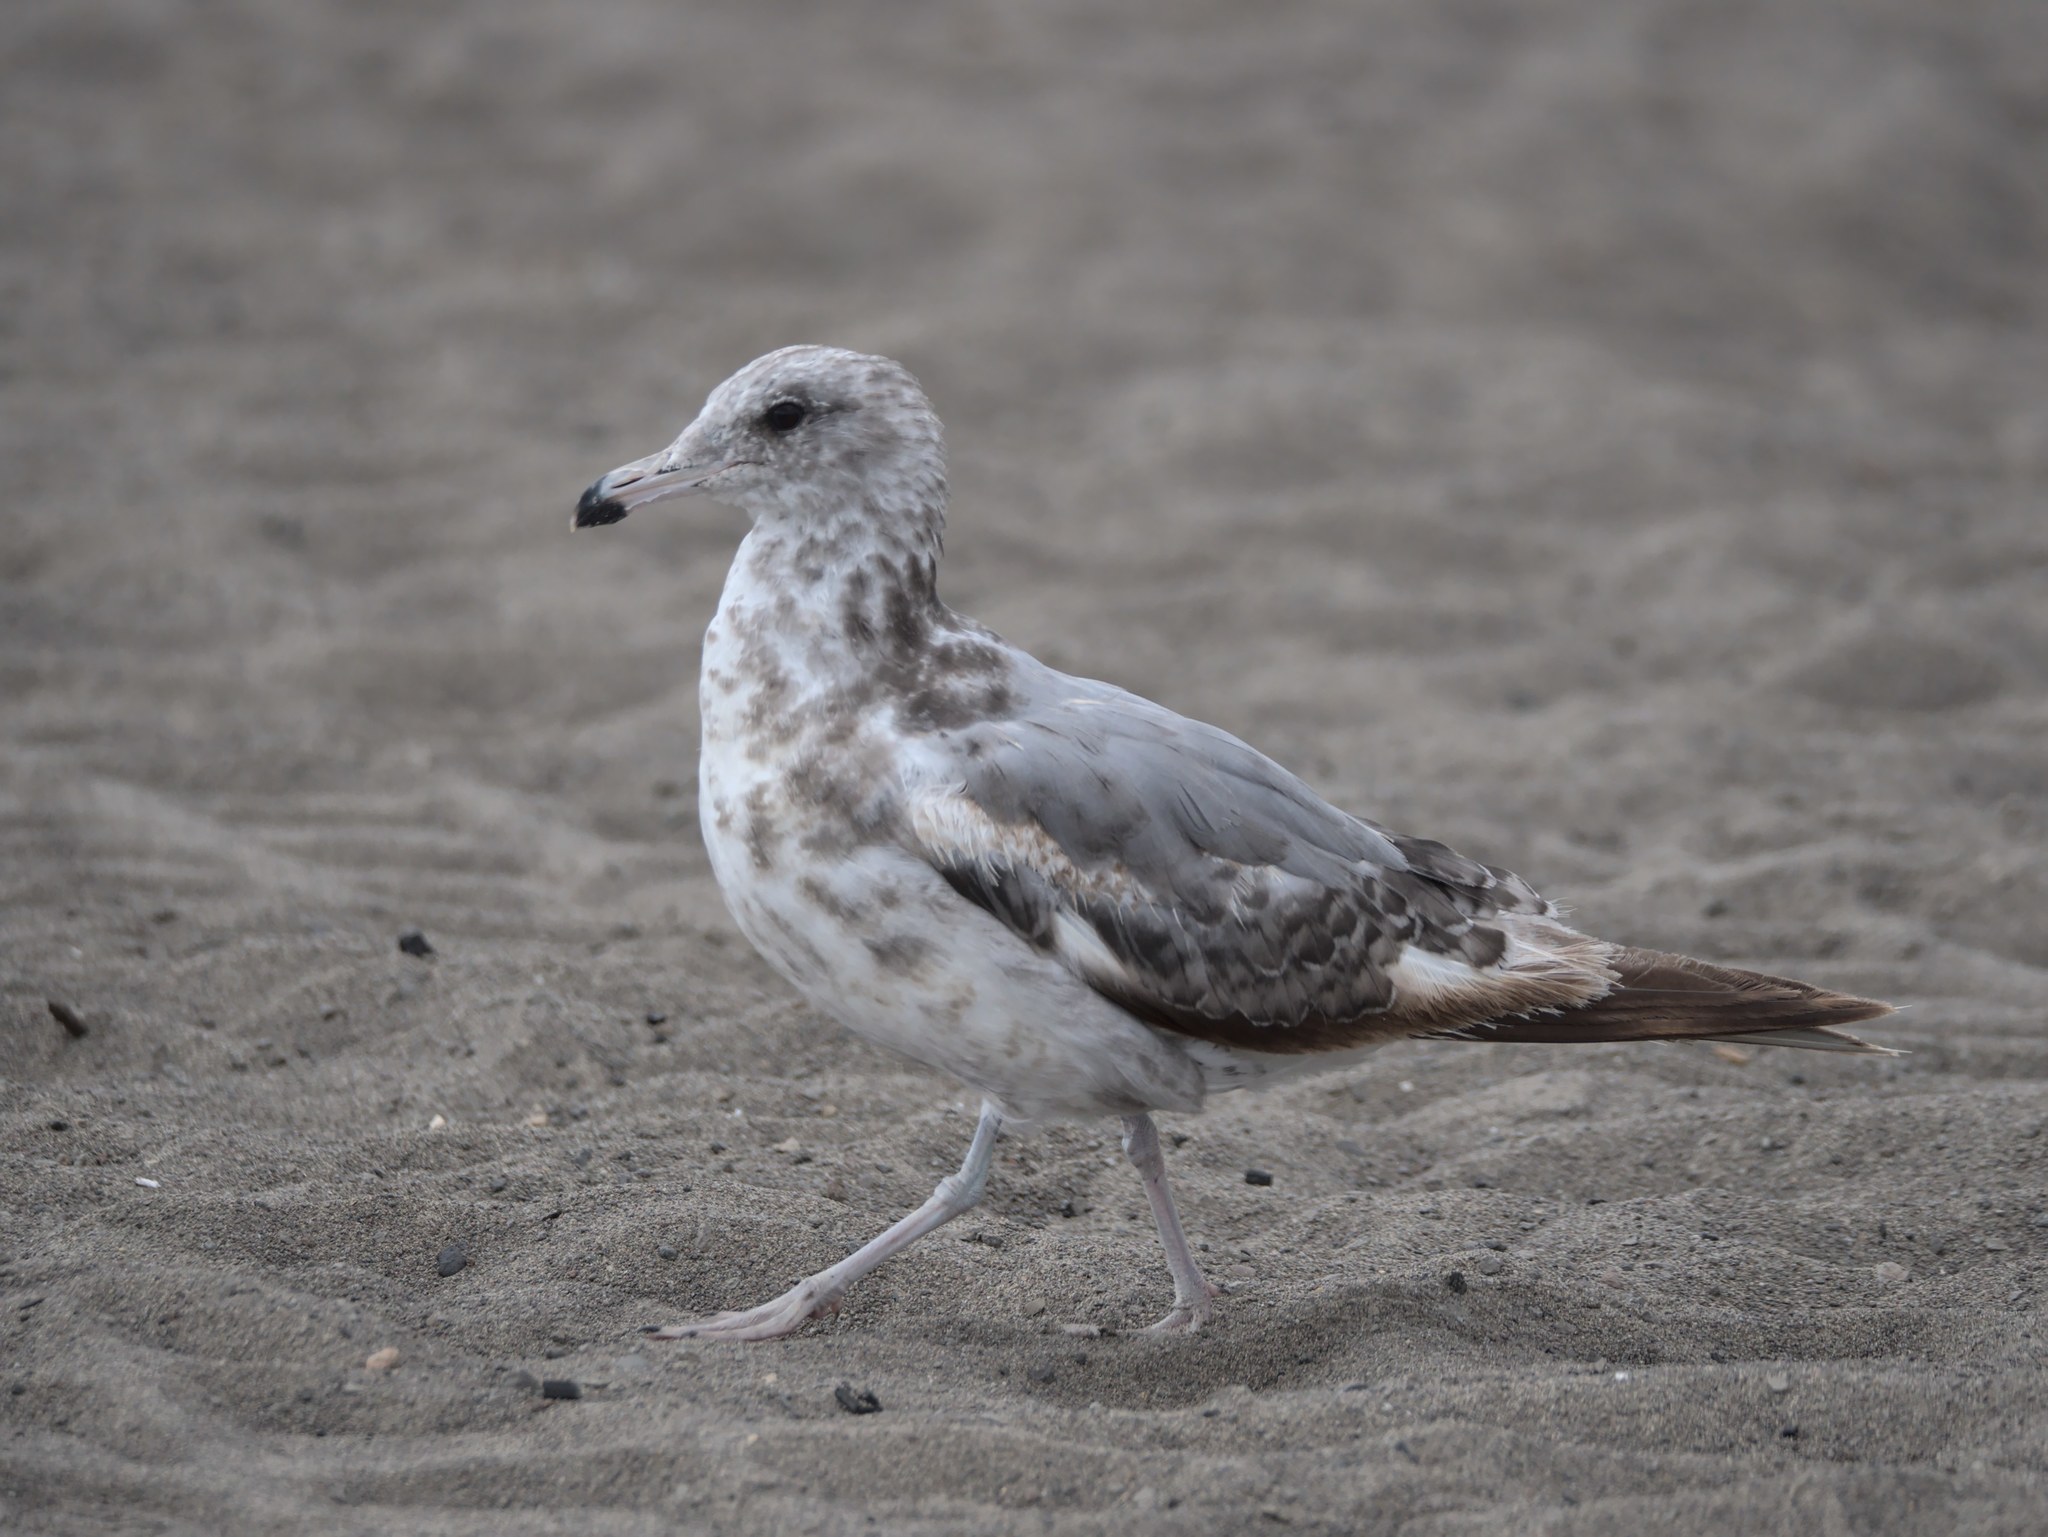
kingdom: Animalia
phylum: Chordata
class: Aves
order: Charadriiformes
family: Laridae
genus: Larus
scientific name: Larus californicus
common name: California gull
